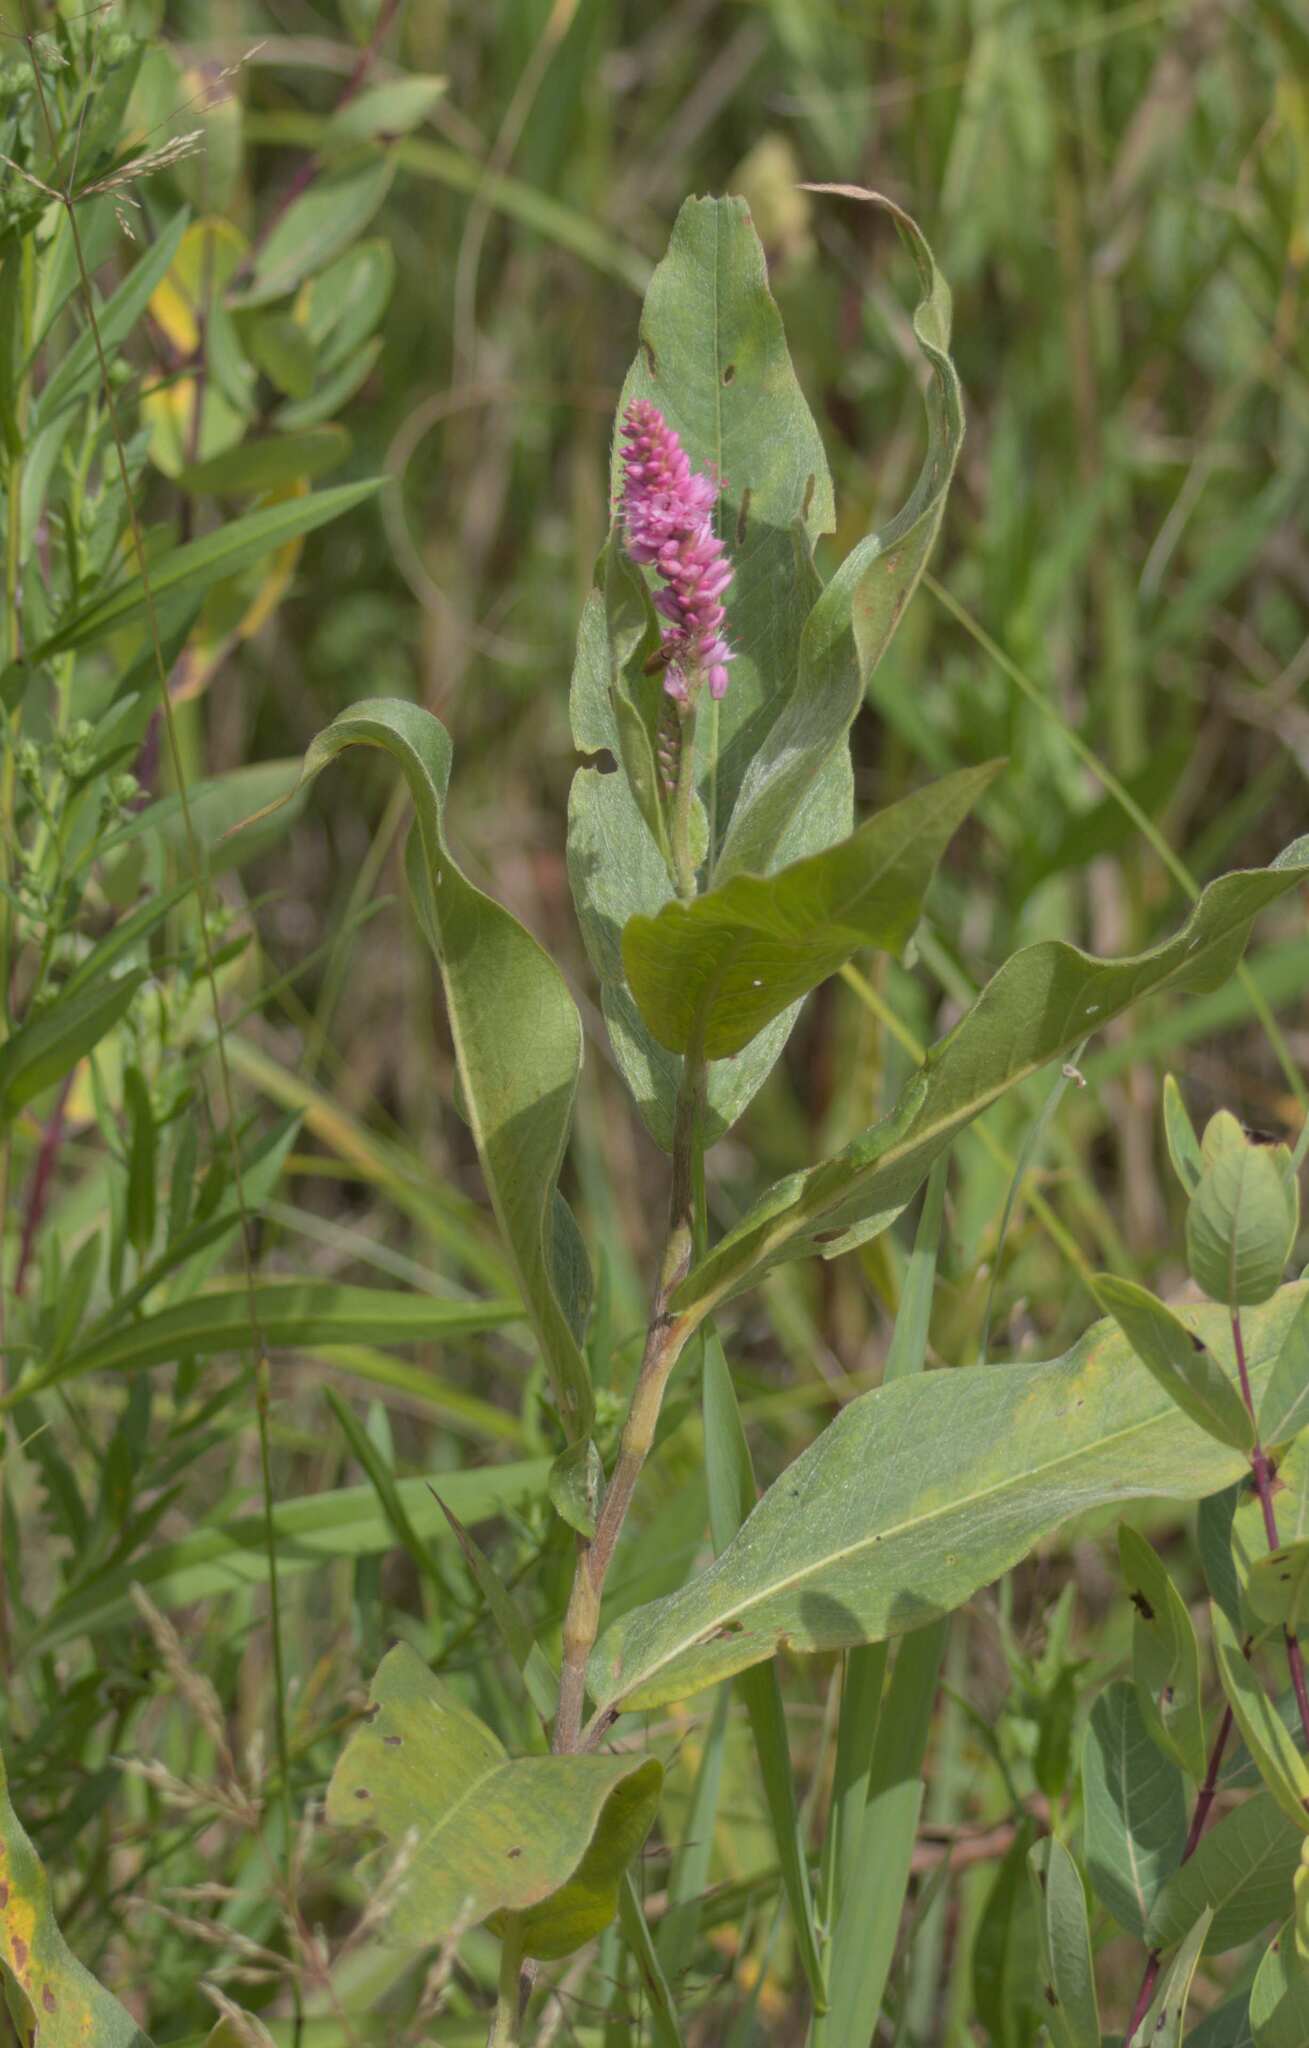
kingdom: Plantae
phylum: Tracheophyta
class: Magnoliopsida
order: Caryophyllales
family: Polygonaceae
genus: Persicaria
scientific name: Persicaria amphibia
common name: Amphibious bistort
